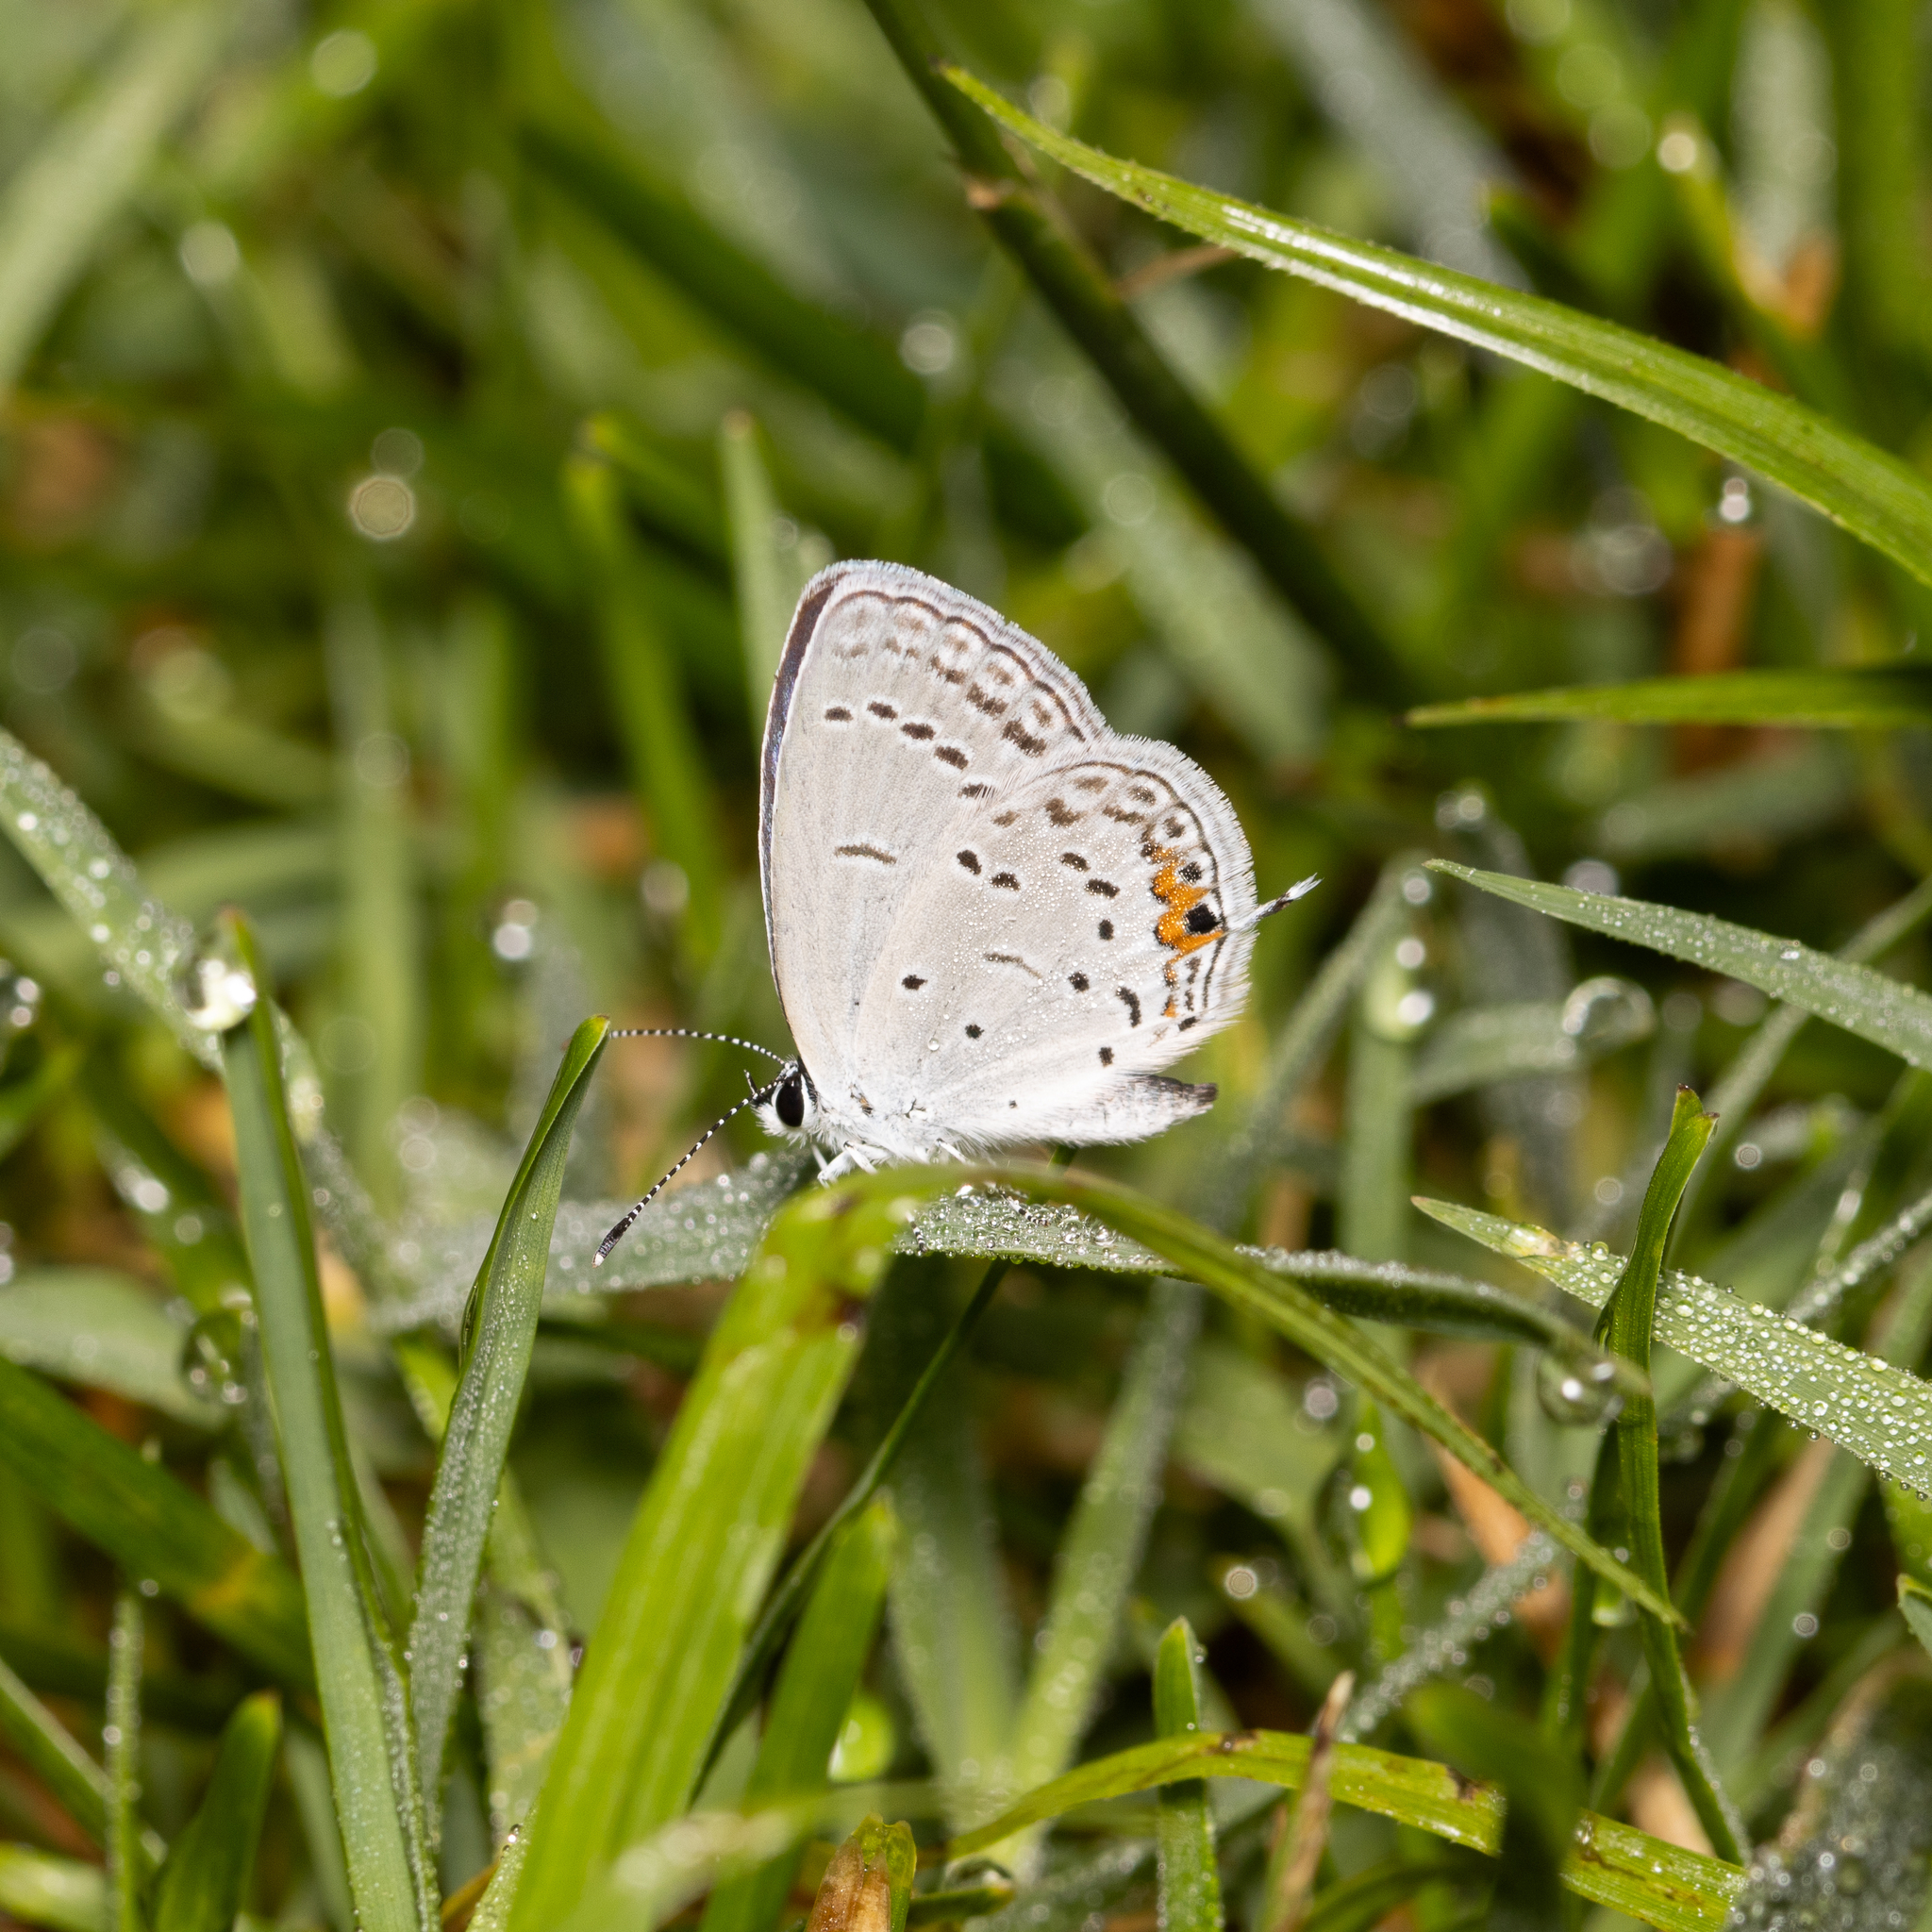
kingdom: Animalia
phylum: Arthropoda
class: Insecta
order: Lepidoptera
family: Lycaenidae
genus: Elkalyce
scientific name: Elkalyce comyntas
